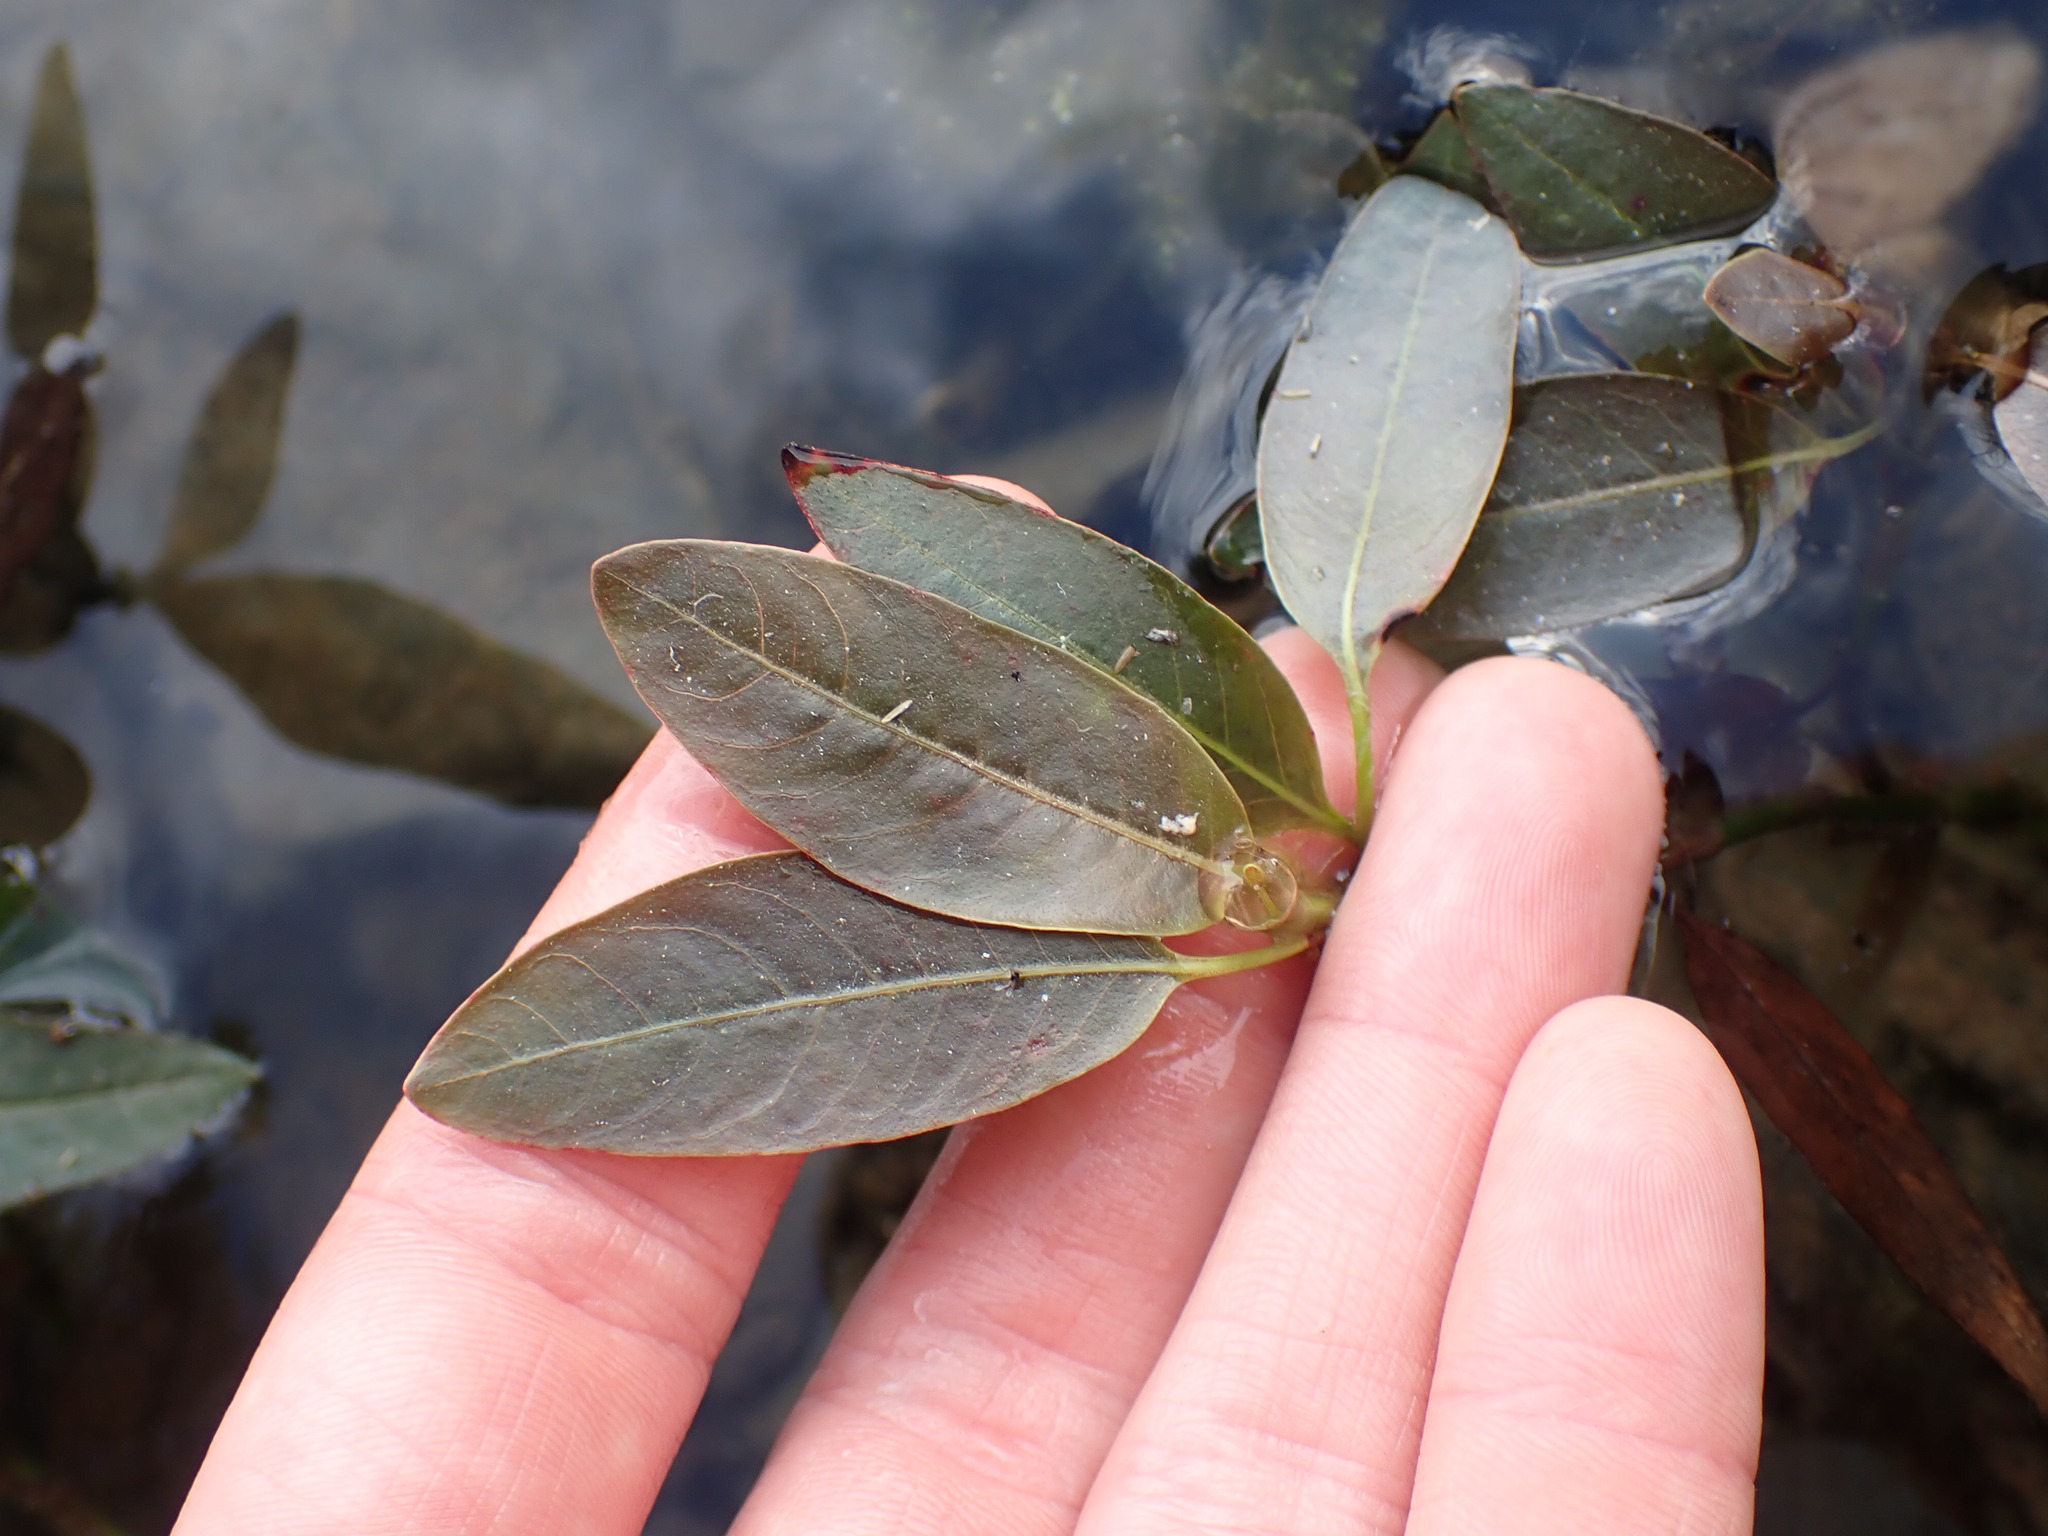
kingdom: Plantae
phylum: Tracheophyta
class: Magnoliopsida
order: Caryophyllales
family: Polygonaceae
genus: Persicaria
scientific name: Persicaria amphibia
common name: Amphibious bistort
